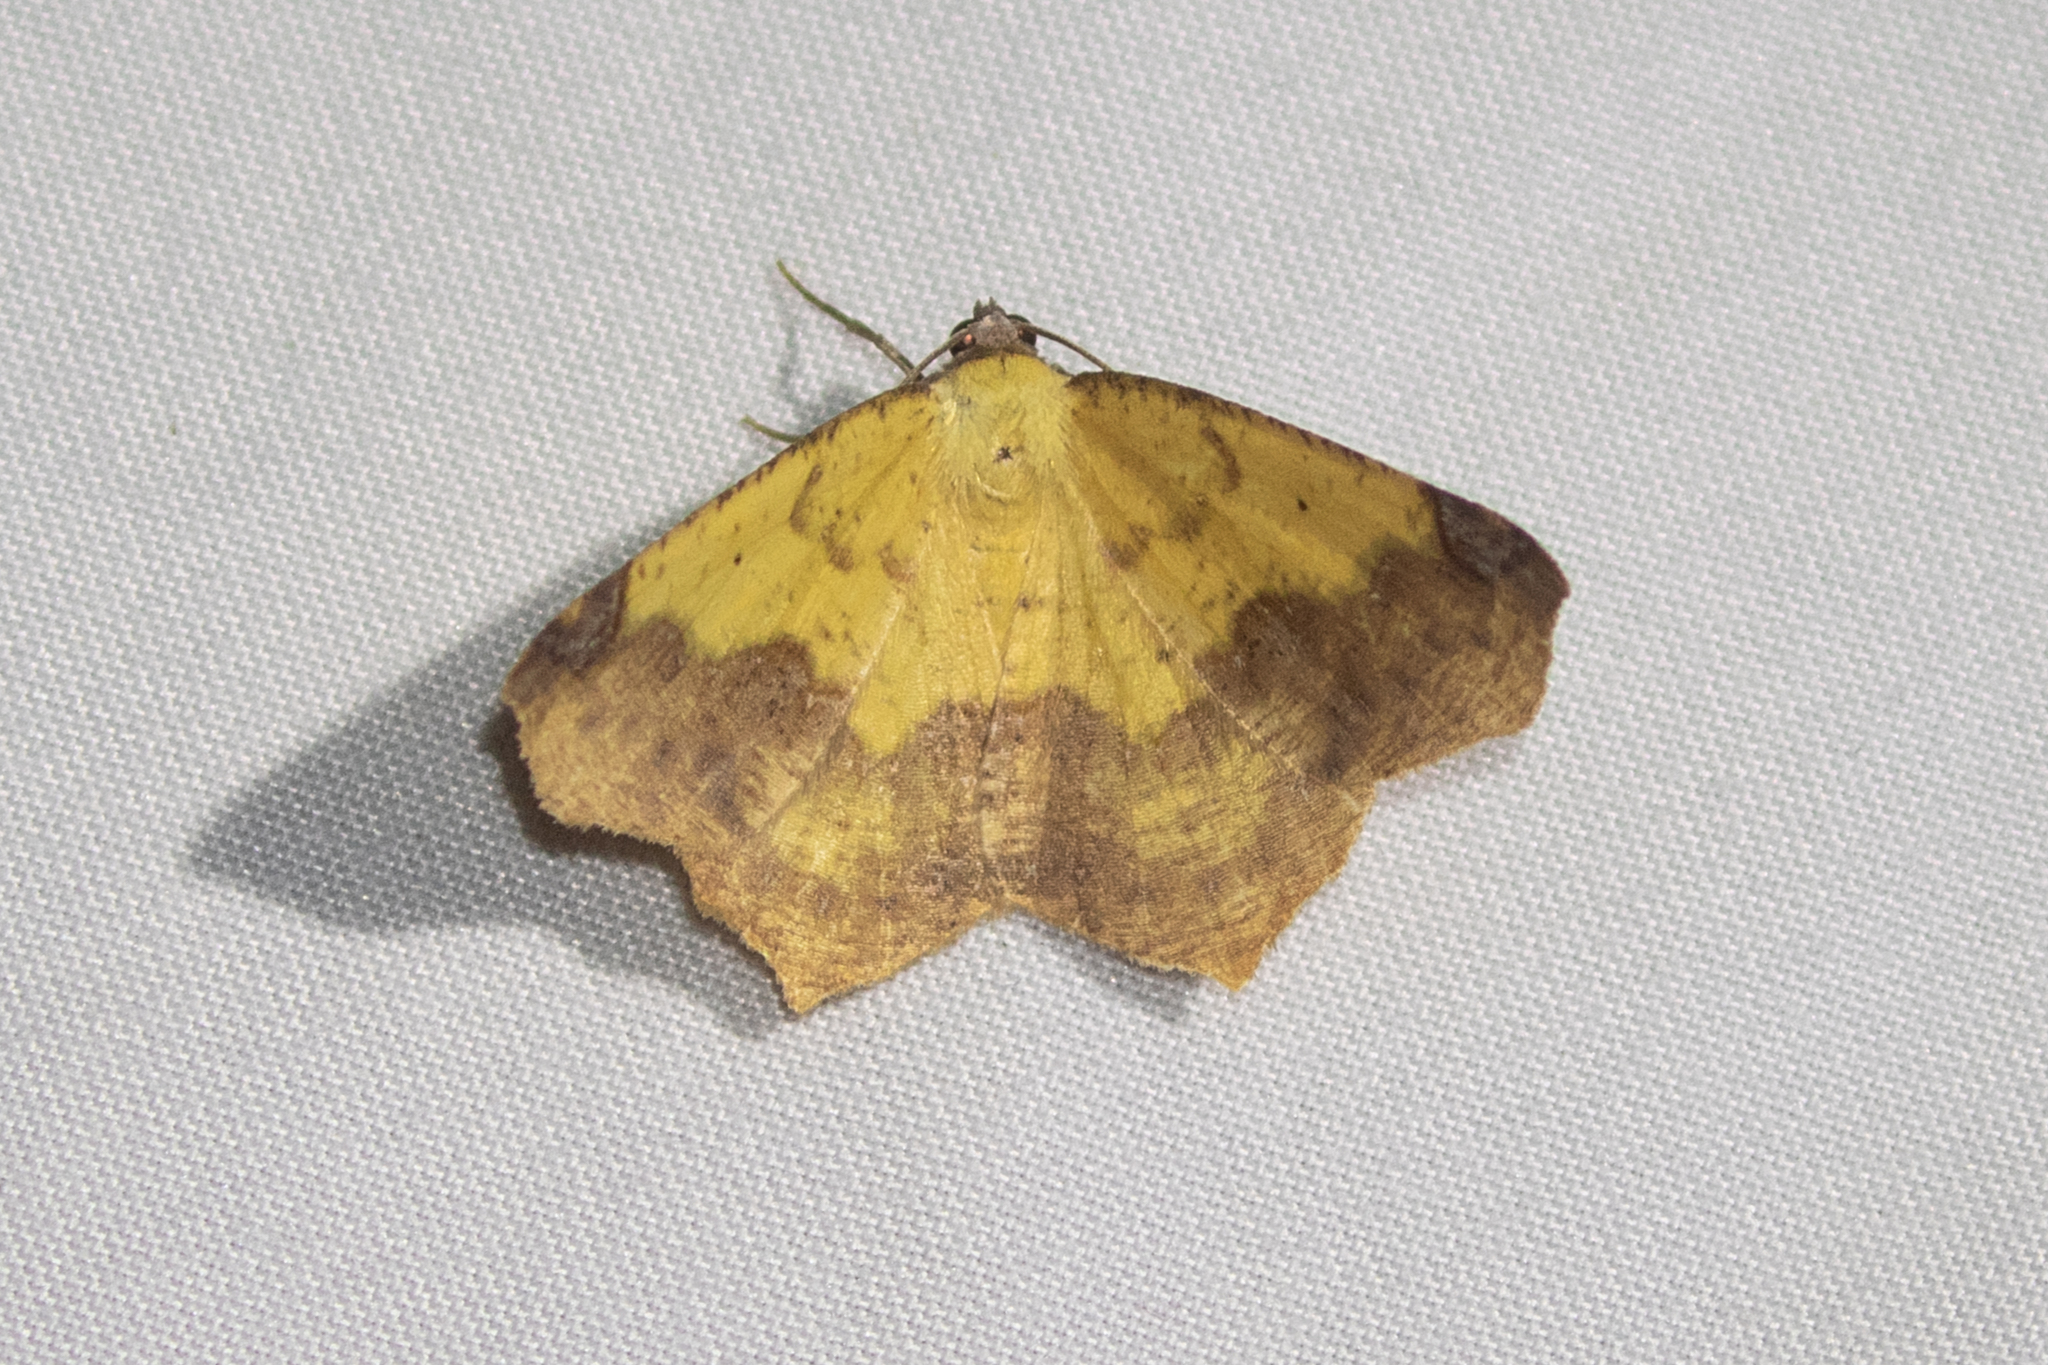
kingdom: Animalia
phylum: Arthropoda
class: Insecta
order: Lepidoptera
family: Geometridae
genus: Antepione
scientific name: Antepione thisoaria
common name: Variable antipione
